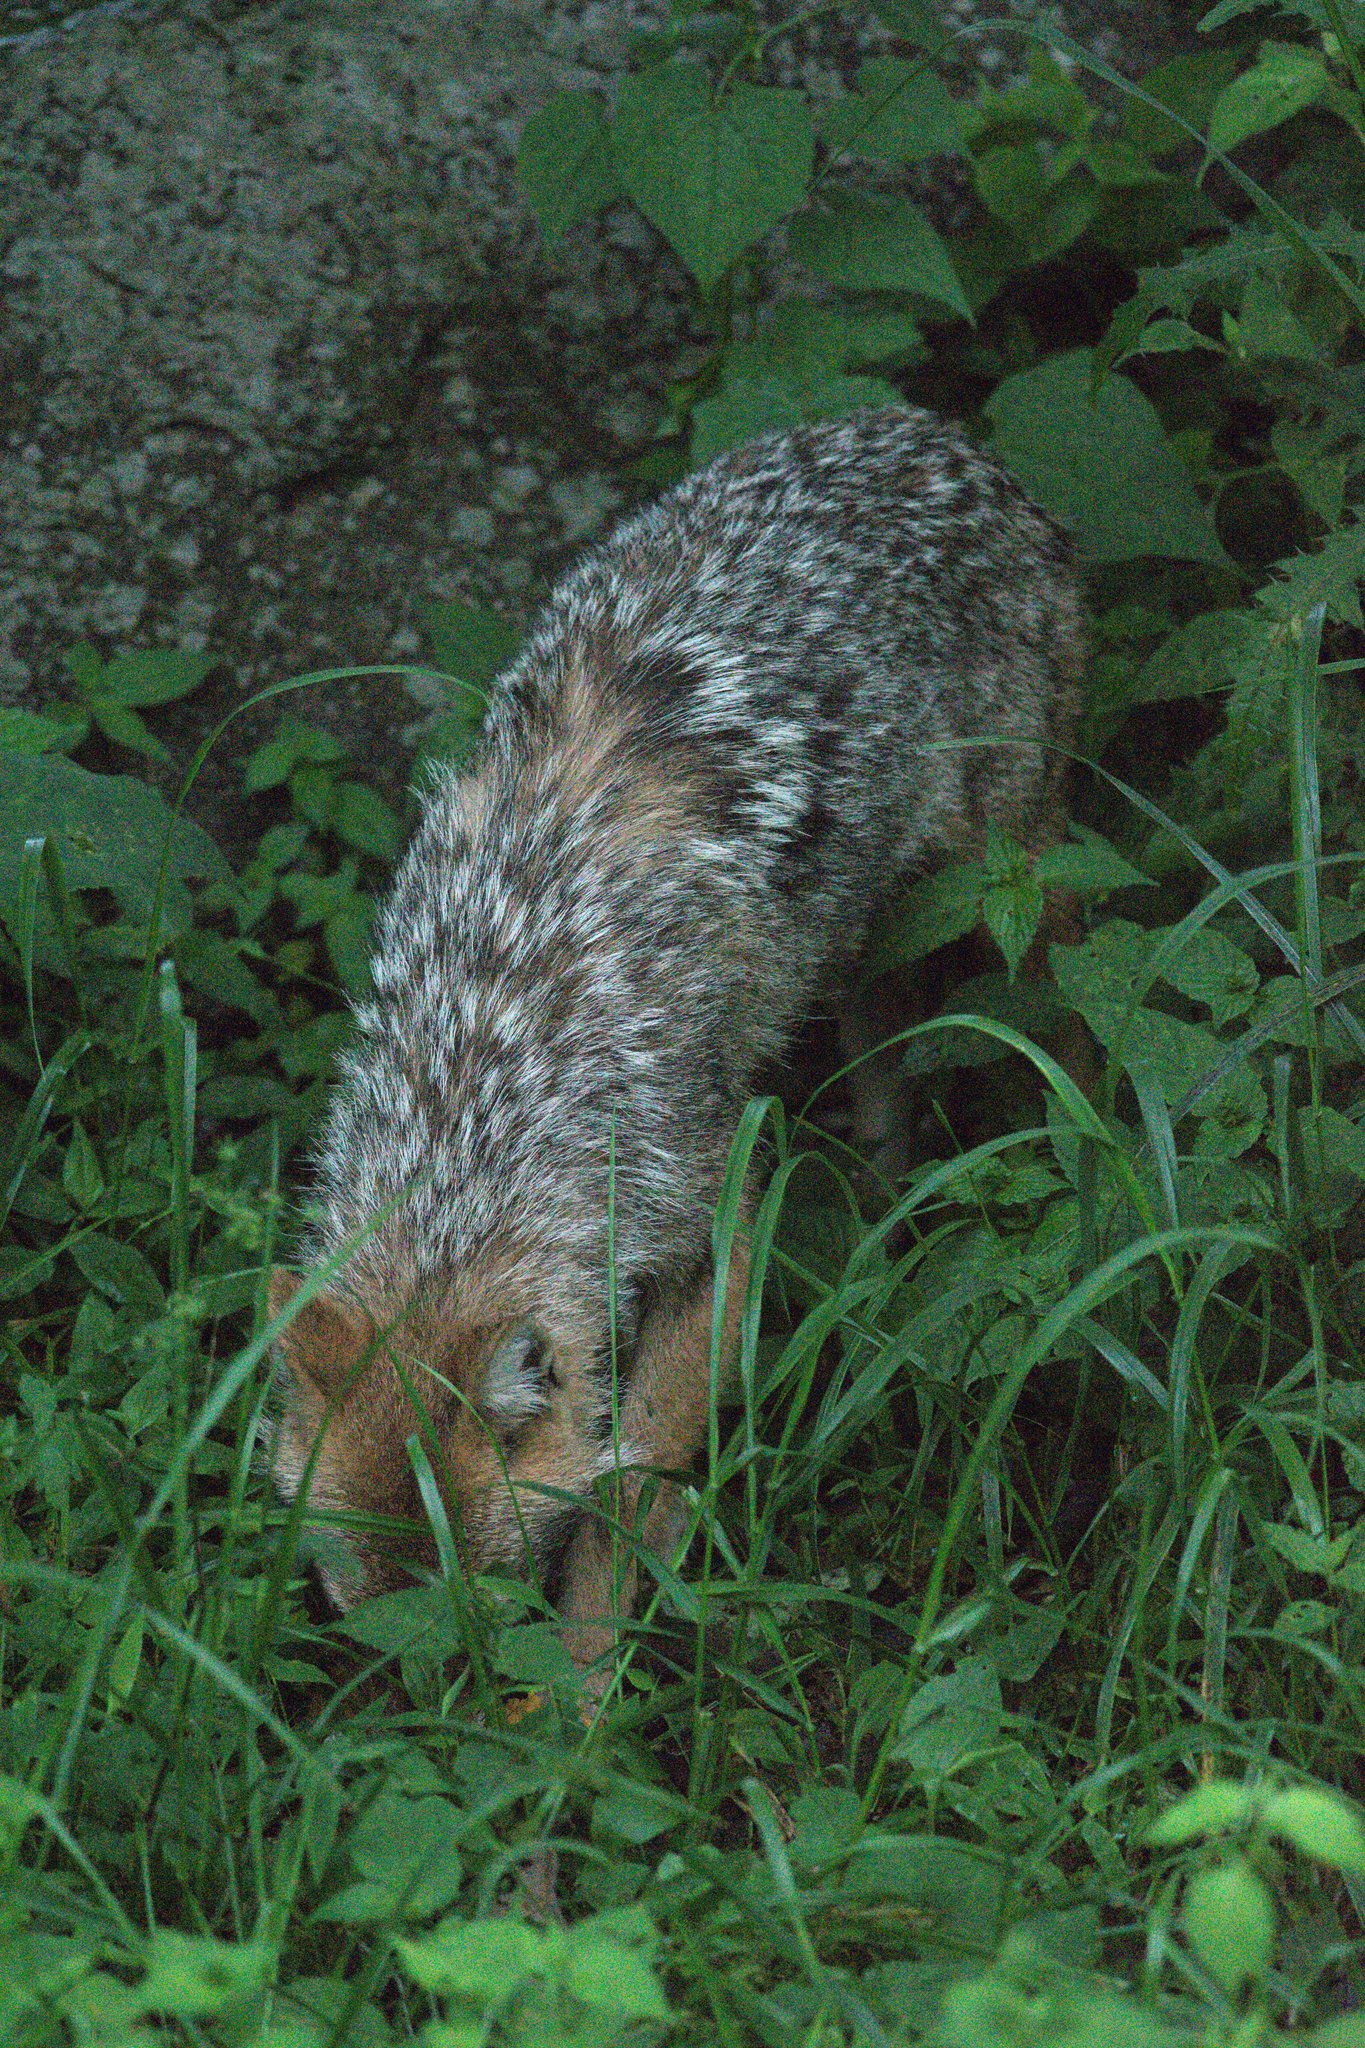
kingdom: Animalia
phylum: Chordata
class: Mammalia
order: Carnivora
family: Canidae
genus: Canis
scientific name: Canis aureus
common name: Golden jackal
